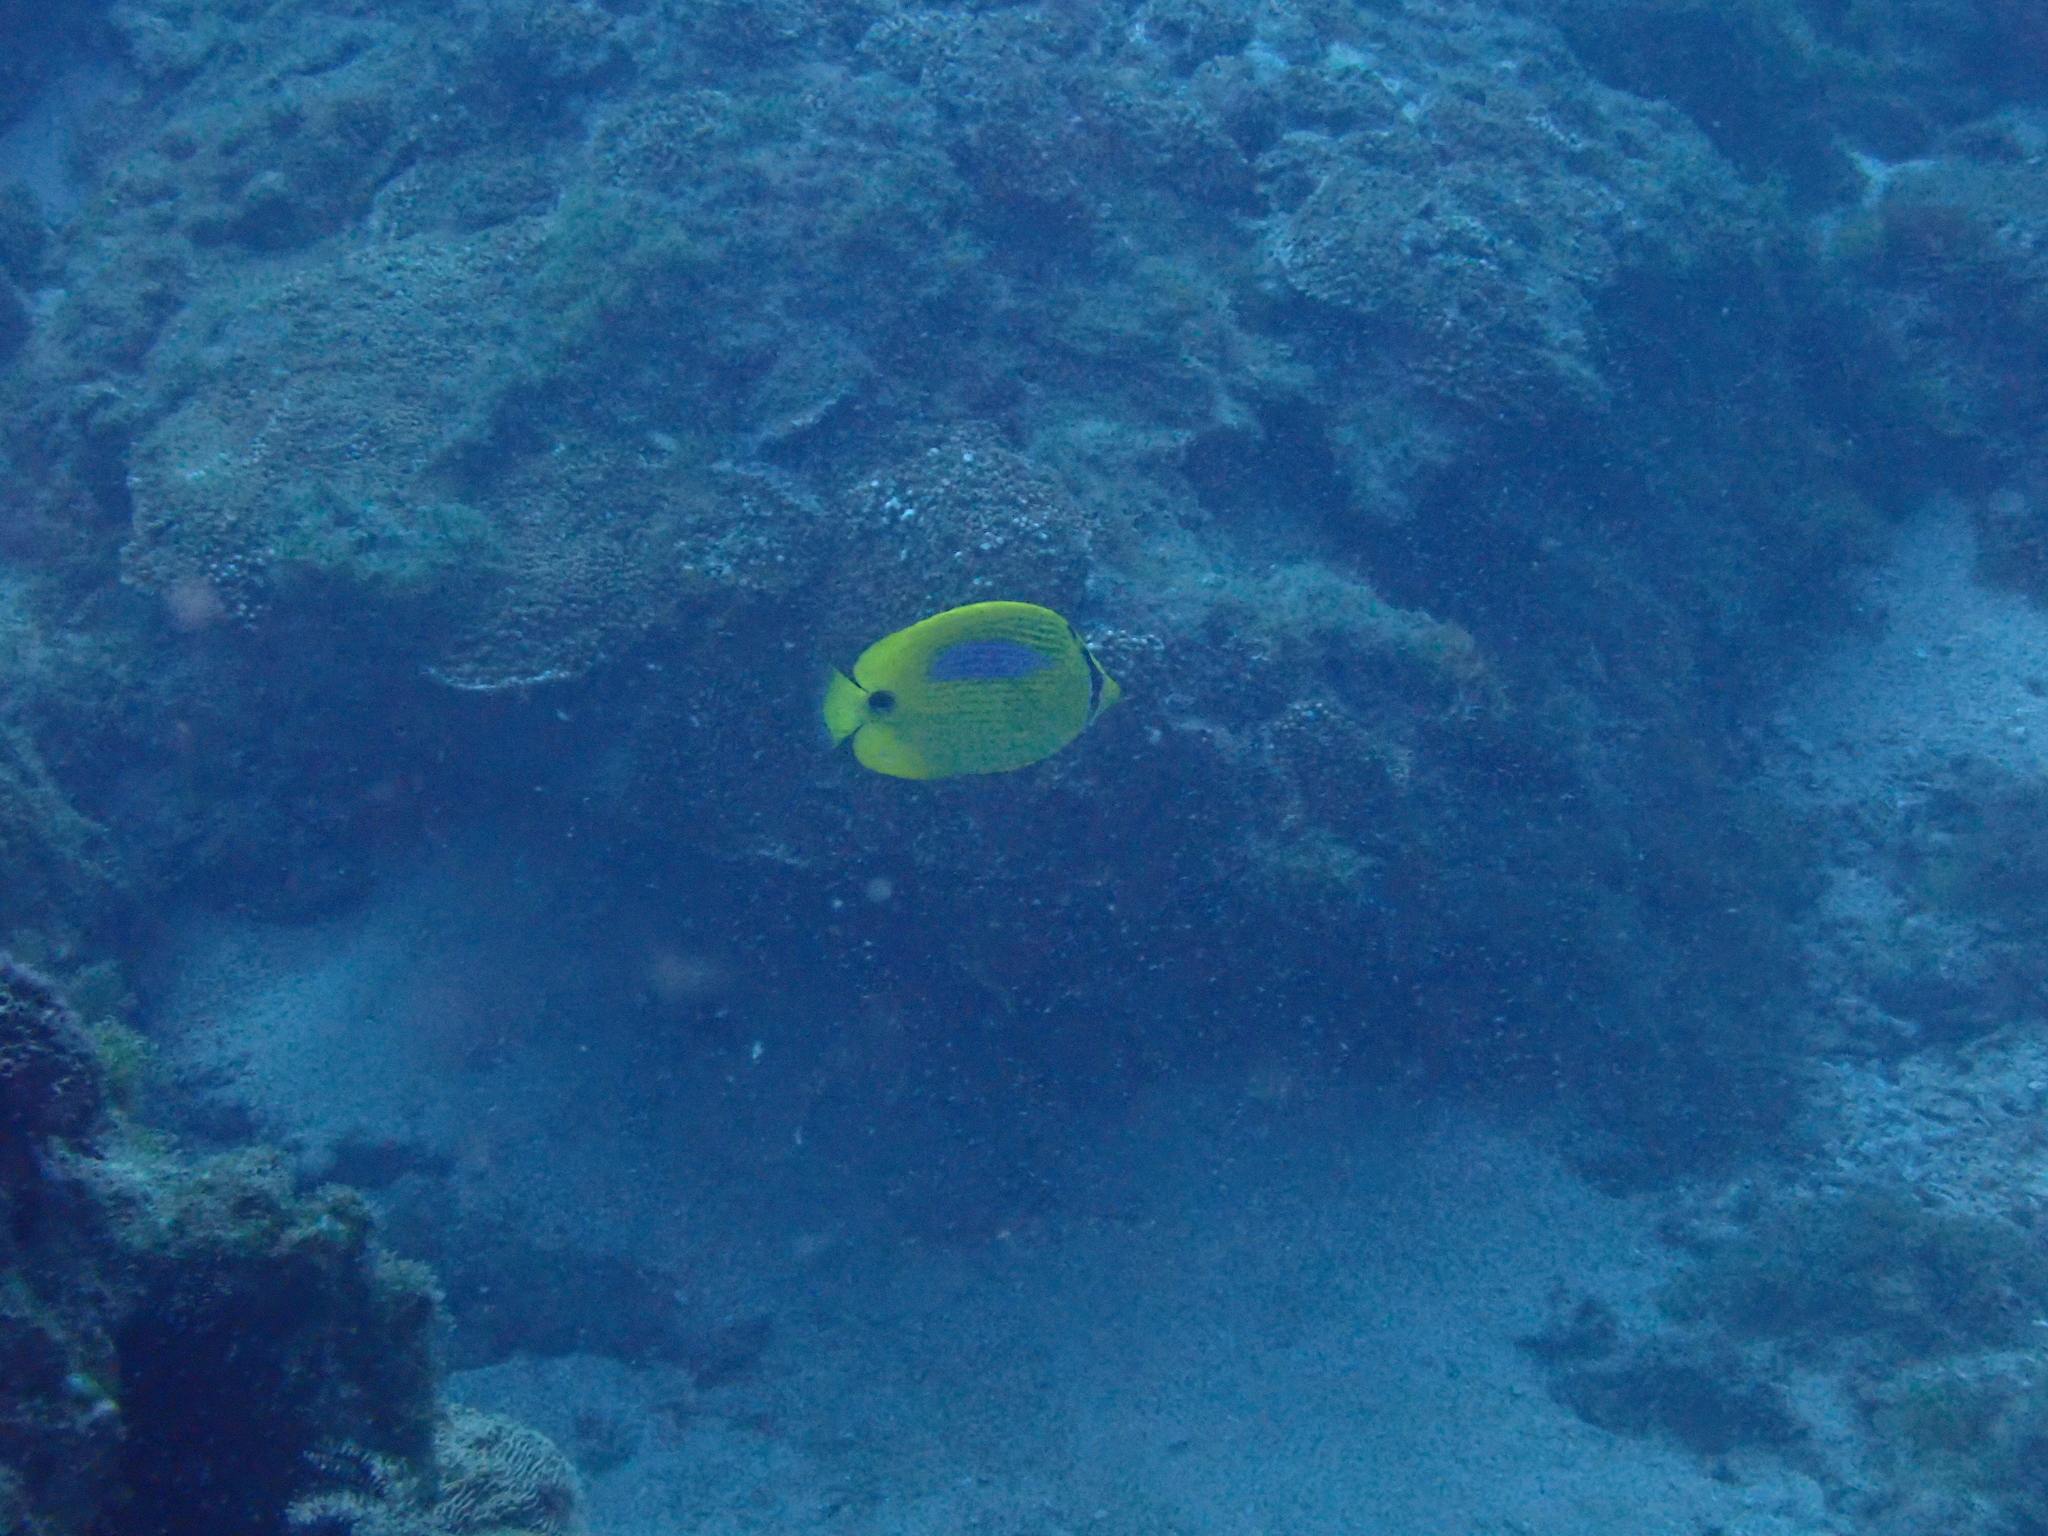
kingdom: Animalia
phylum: Chordata
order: Perciformes
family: Chaetodontidae
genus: Chaetodon
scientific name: Chaetodon plebeius
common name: Bluespot butterflyfish
